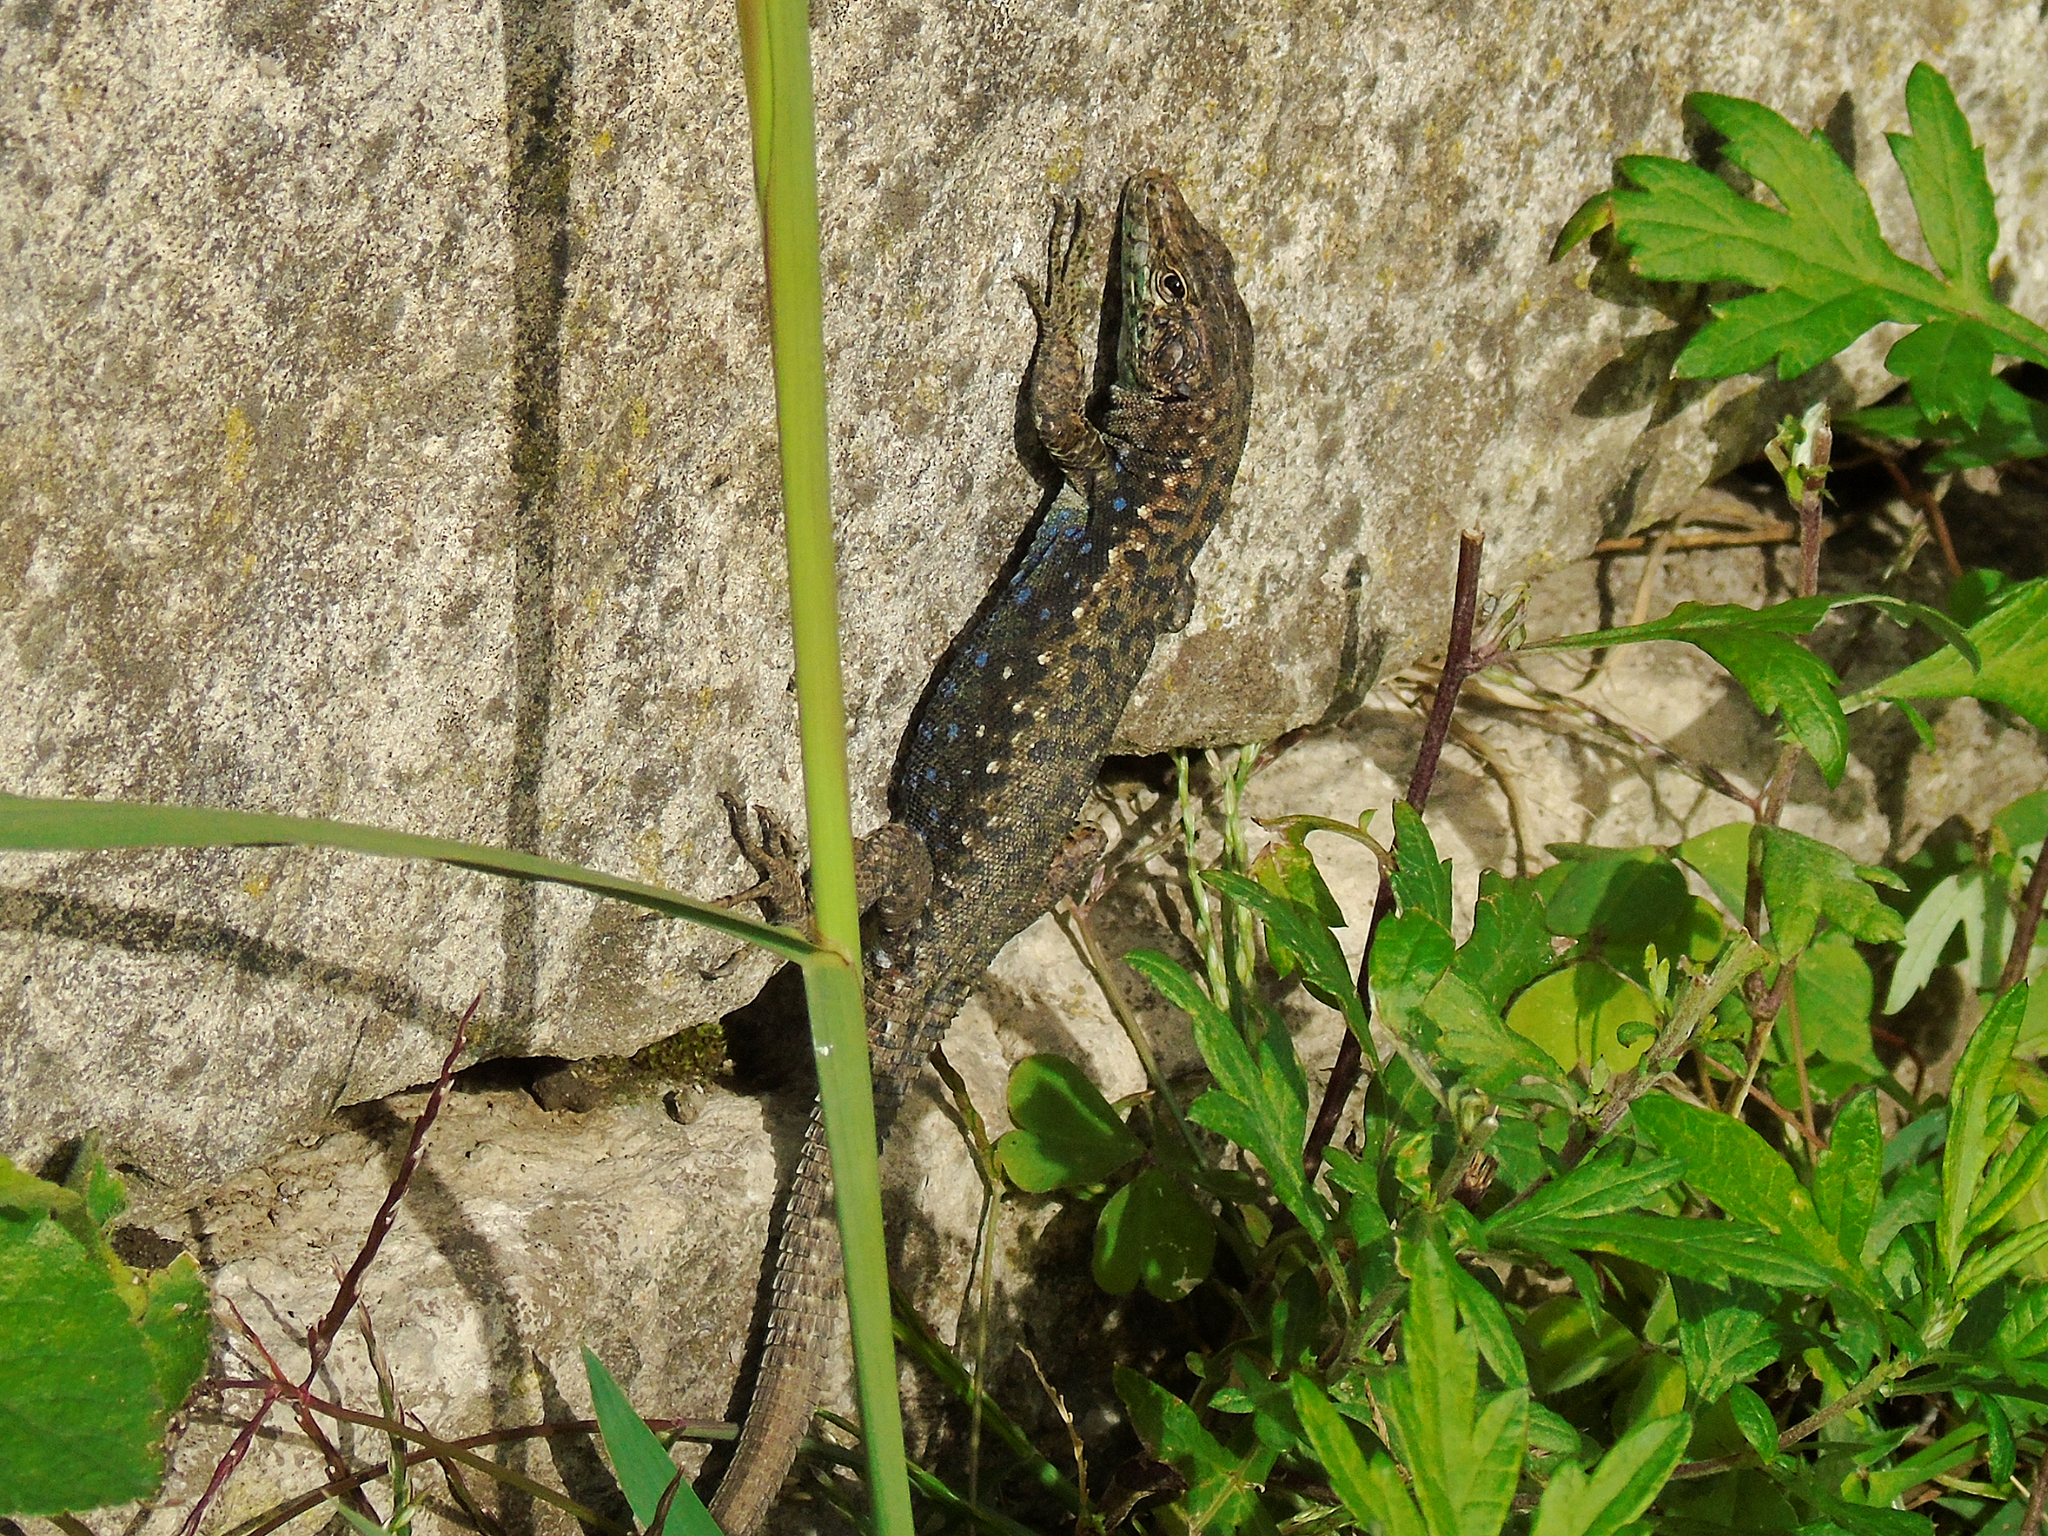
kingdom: Animalia
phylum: Chordata
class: Squamata
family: Lacertidae
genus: Darevskia
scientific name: Darevskia rudis
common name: Spiny-tailed lizard
